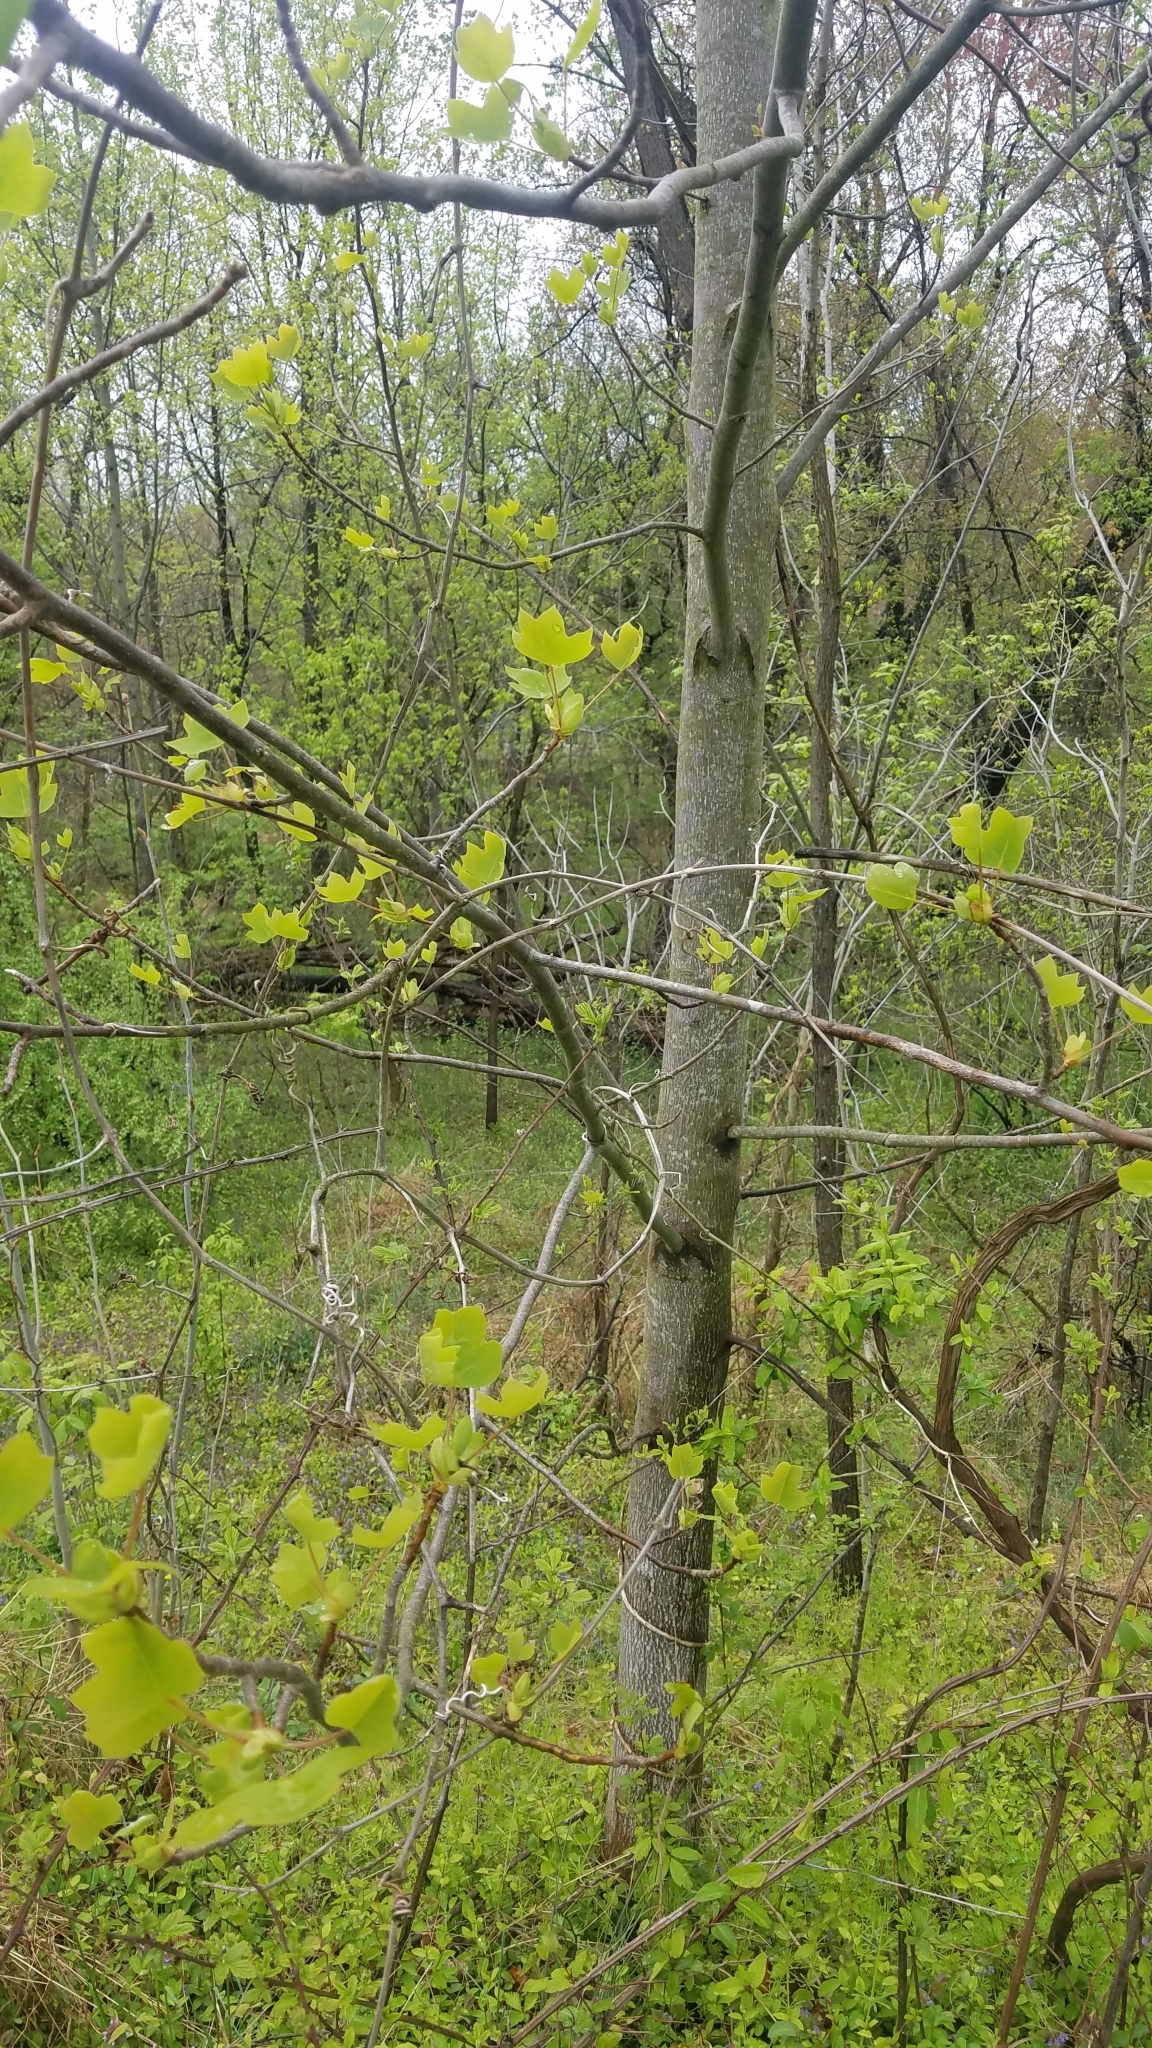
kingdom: Plantae
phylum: Tracheophyta
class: Magnoliopsida
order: Magnoliales
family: Magnoliaceae
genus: Liriodendron
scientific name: Liriodendron tulipifera
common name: Tulip tree
